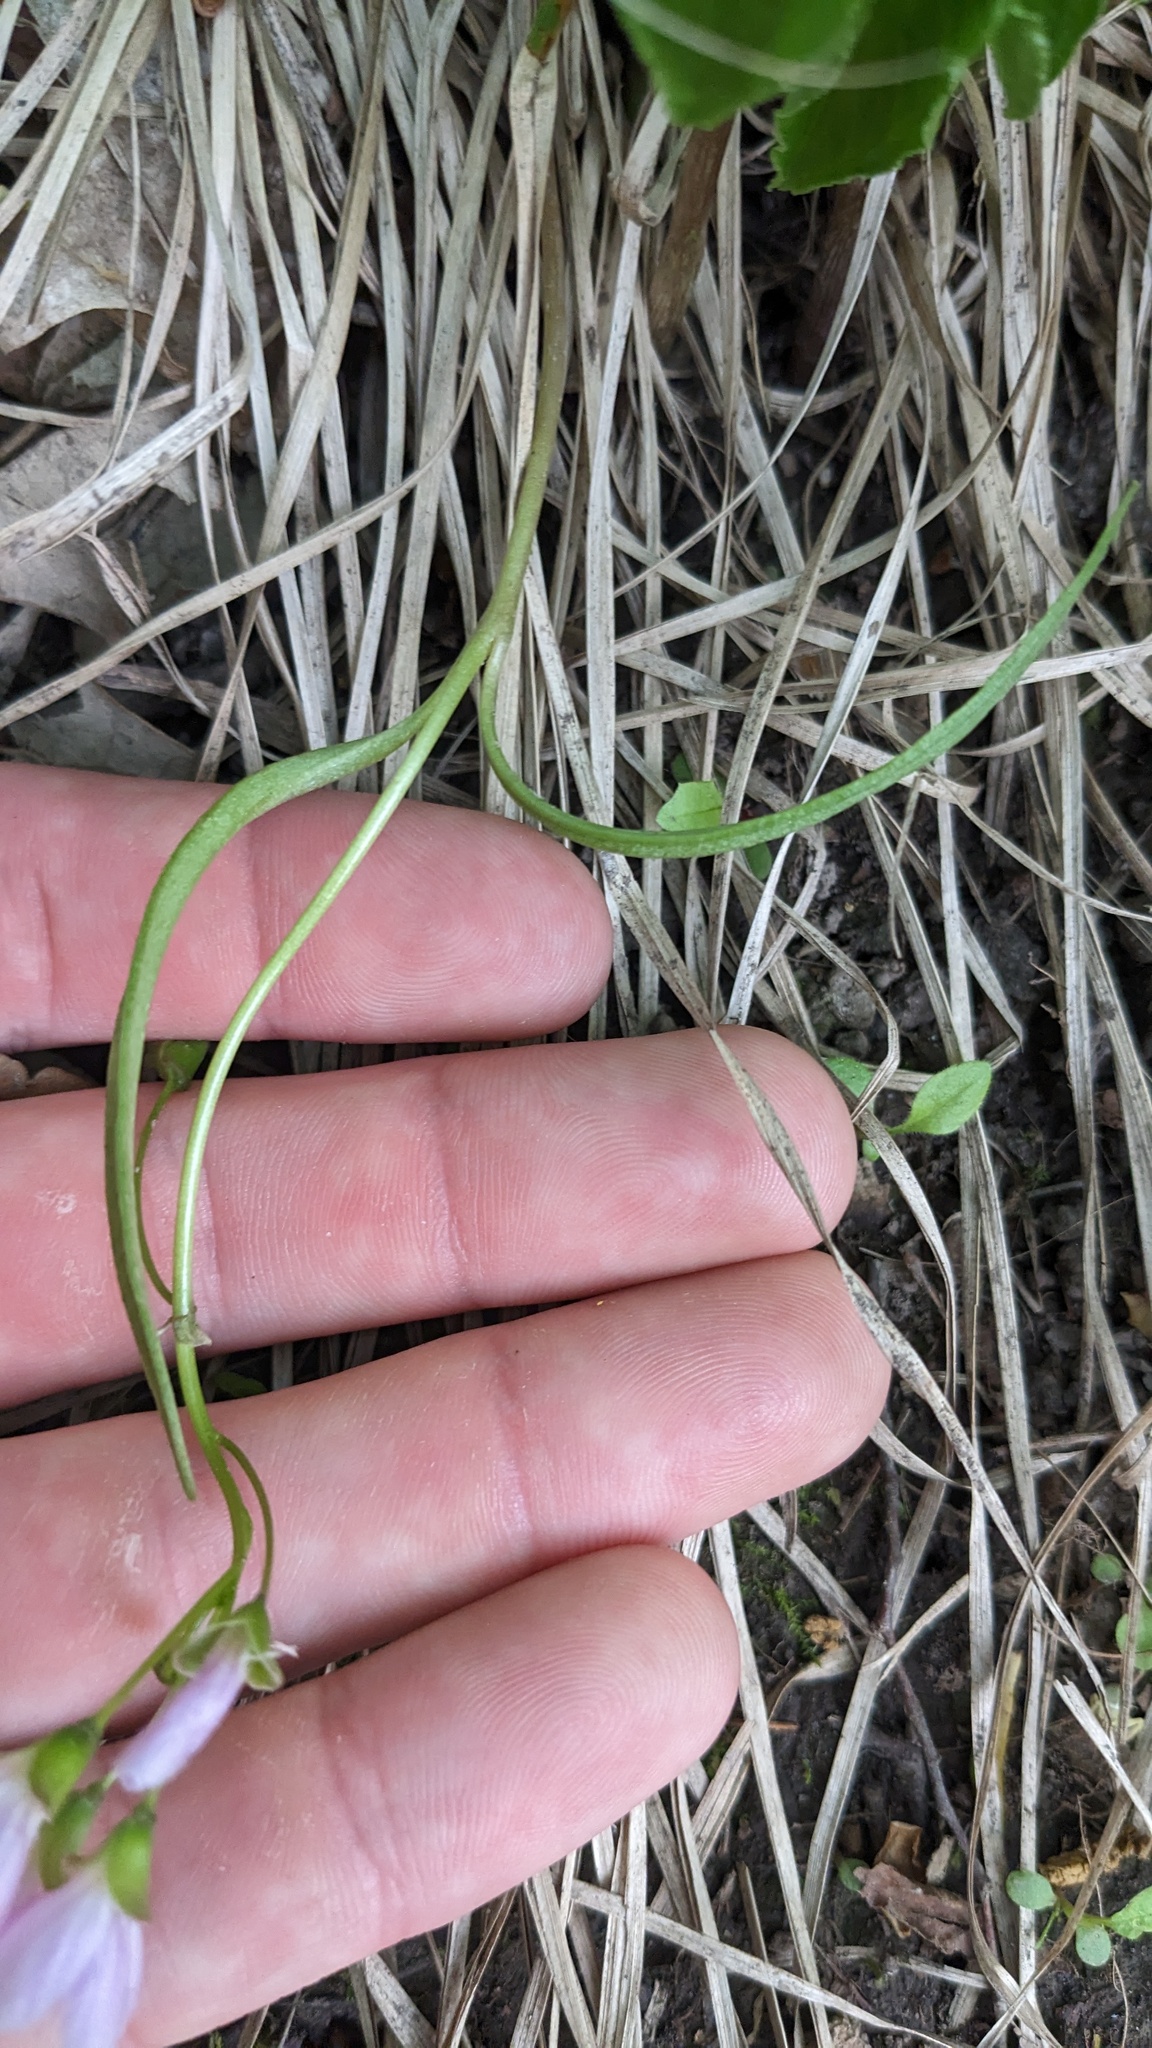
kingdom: Plantae
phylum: Tracheophyta
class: Magnoliopsida
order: Caryophyllales
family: Montiaceae
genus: Claytonia
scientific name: Claytonia virginica
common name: Virginia springbeauty
